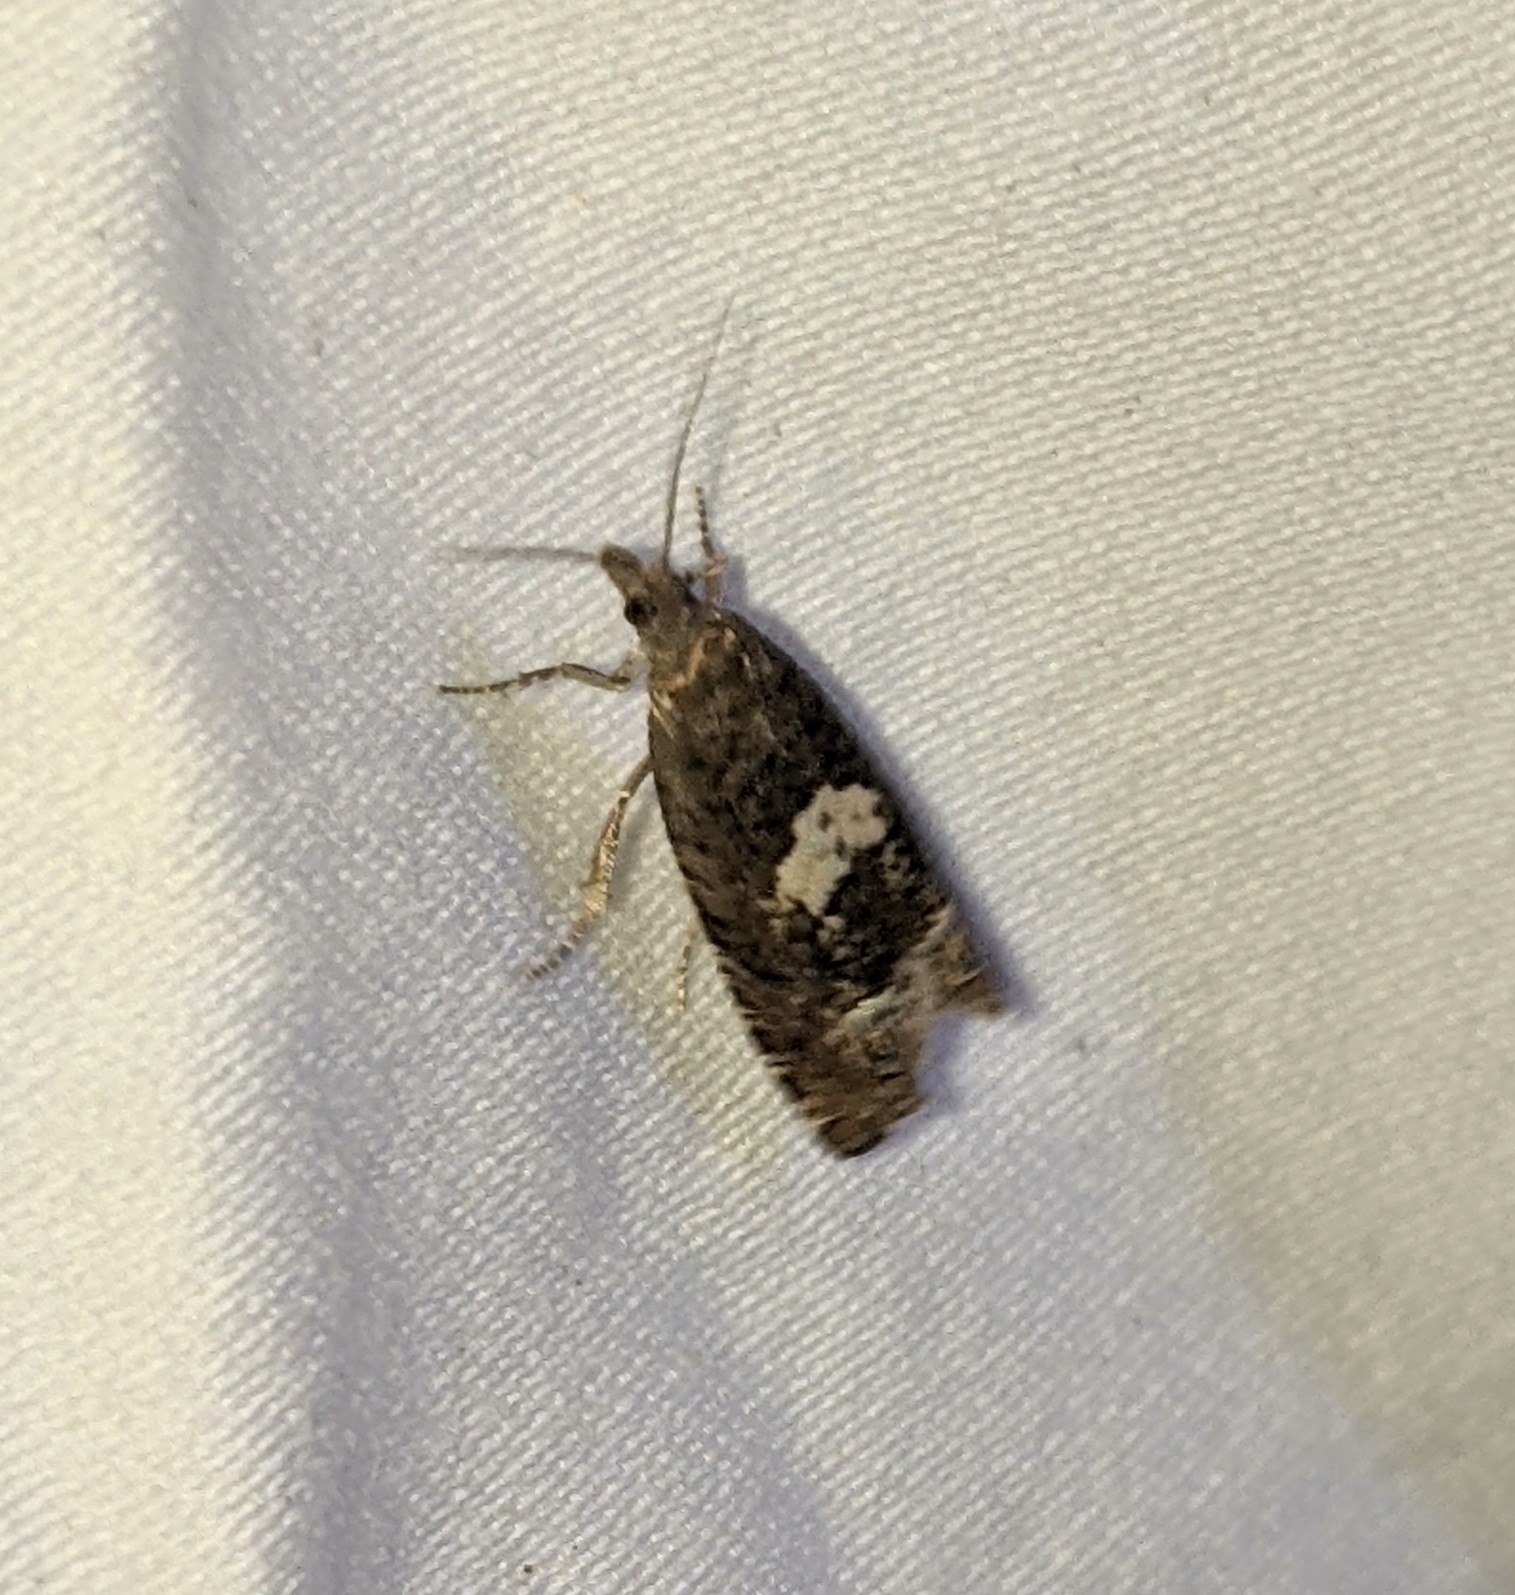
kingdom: Animalia
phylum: Arthropoda
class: Insecta
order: Lepidoptera
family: Tortricidae
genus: Eucosma
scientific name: Eucosma parmatana
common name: Aster eucosma moth
